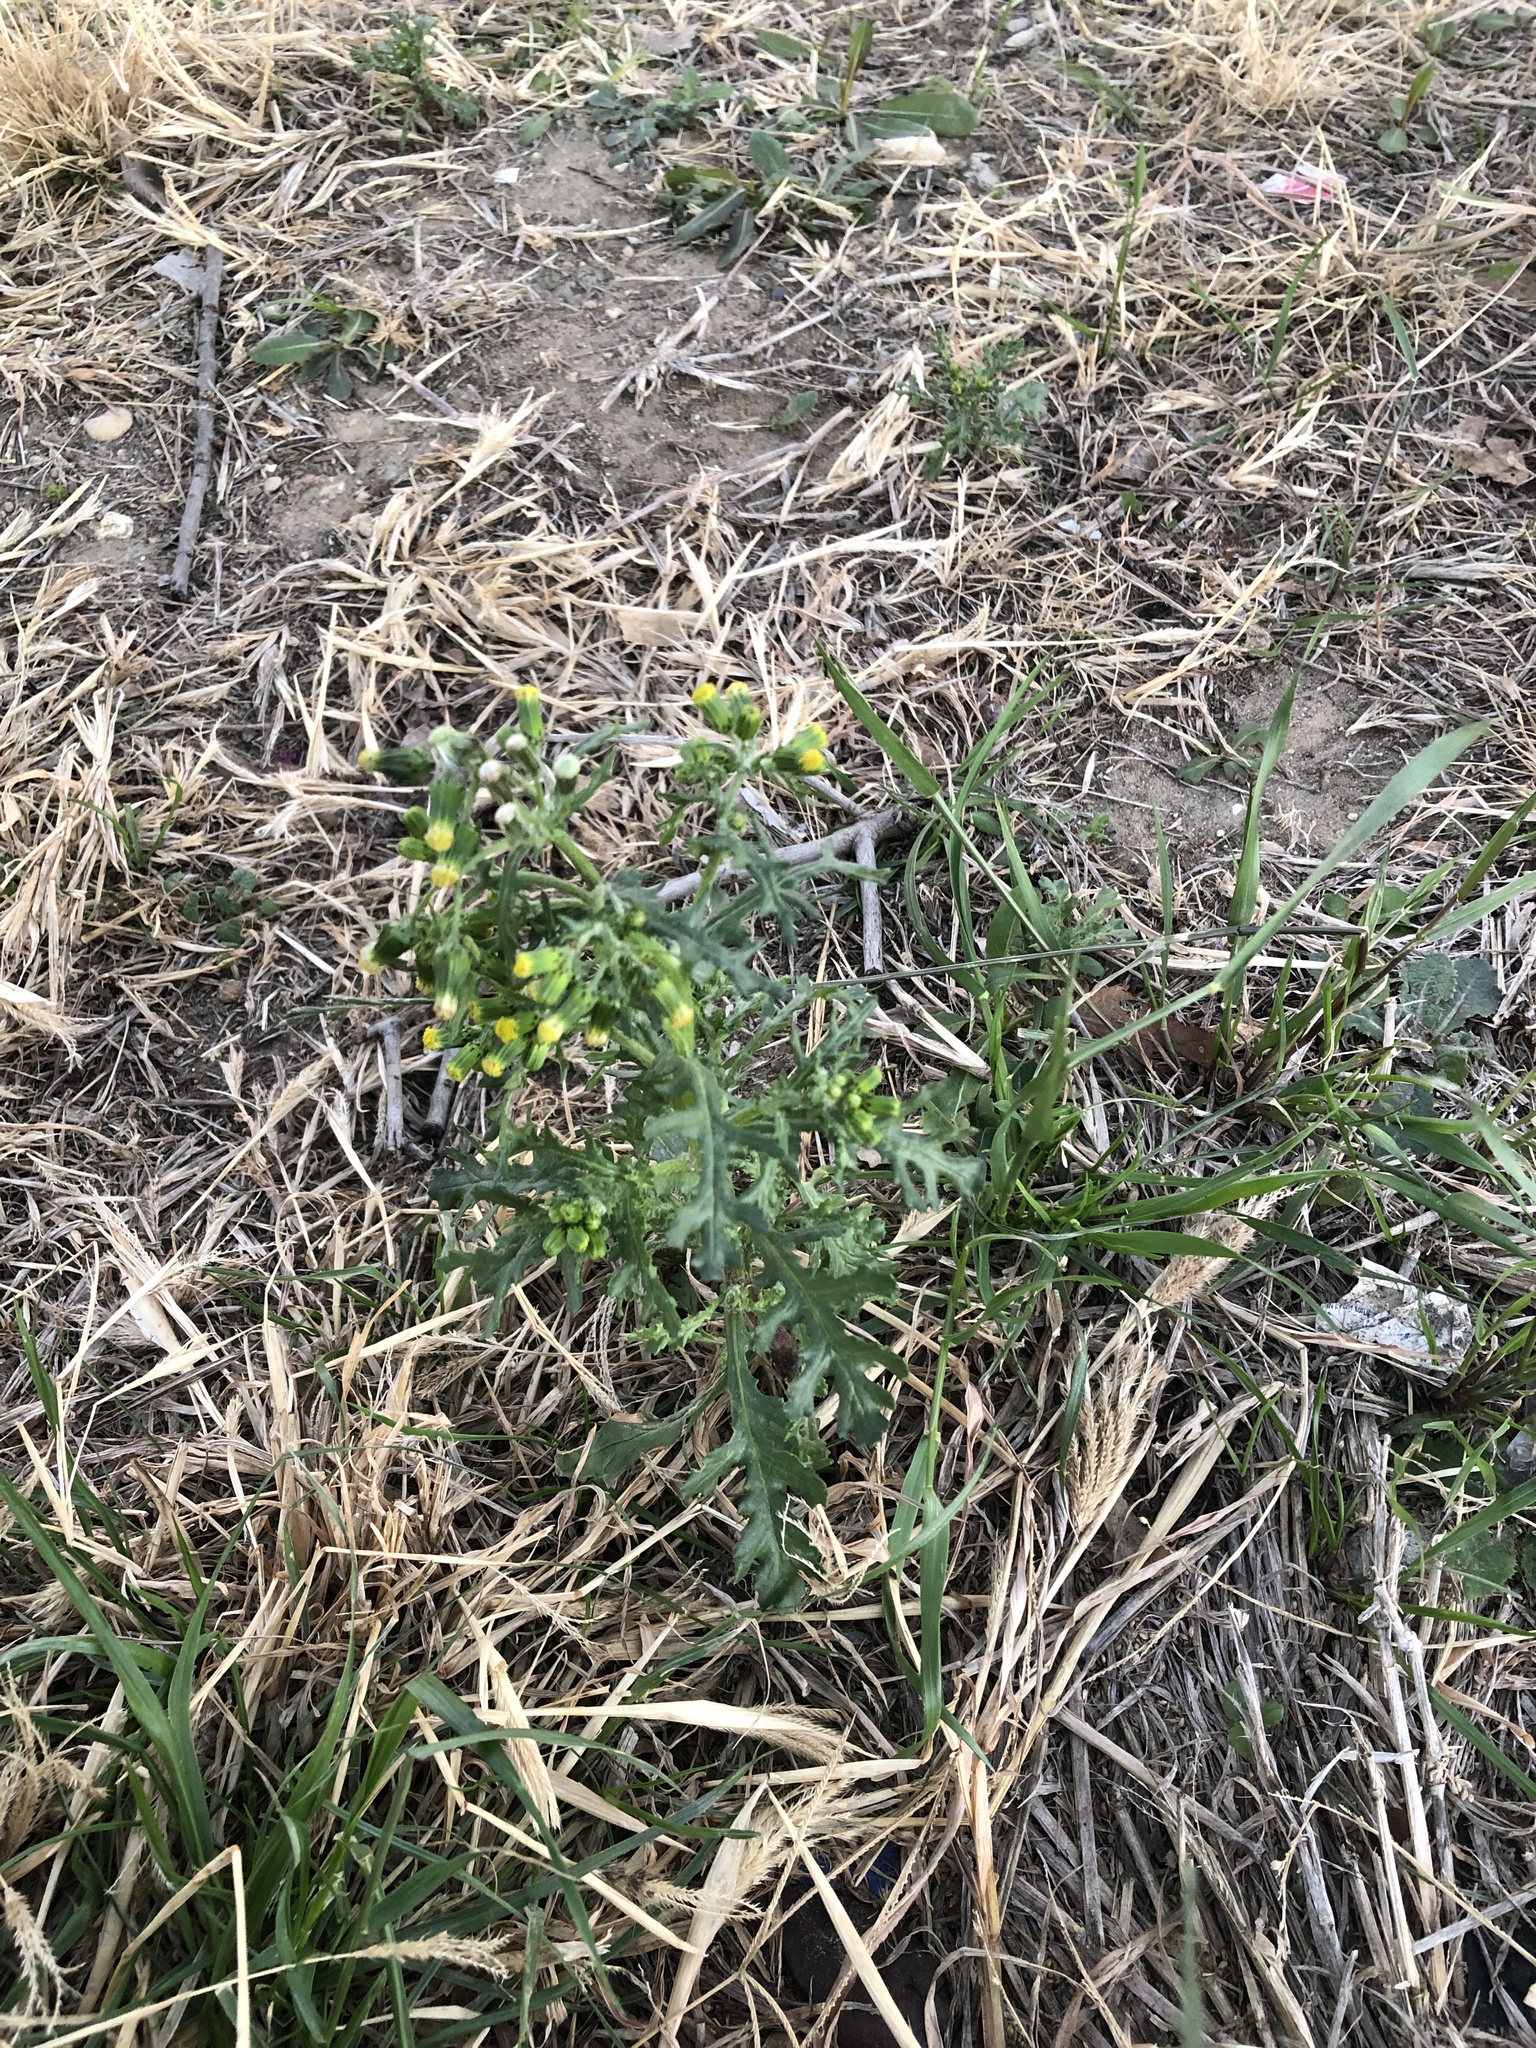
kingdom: Plantae
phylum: Tracheophyta
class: Magnoliopsida
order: Asterales
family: Asteraceae
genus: Senecio
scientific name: Senecio vulgaris
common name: Old-man-in-the-spring
